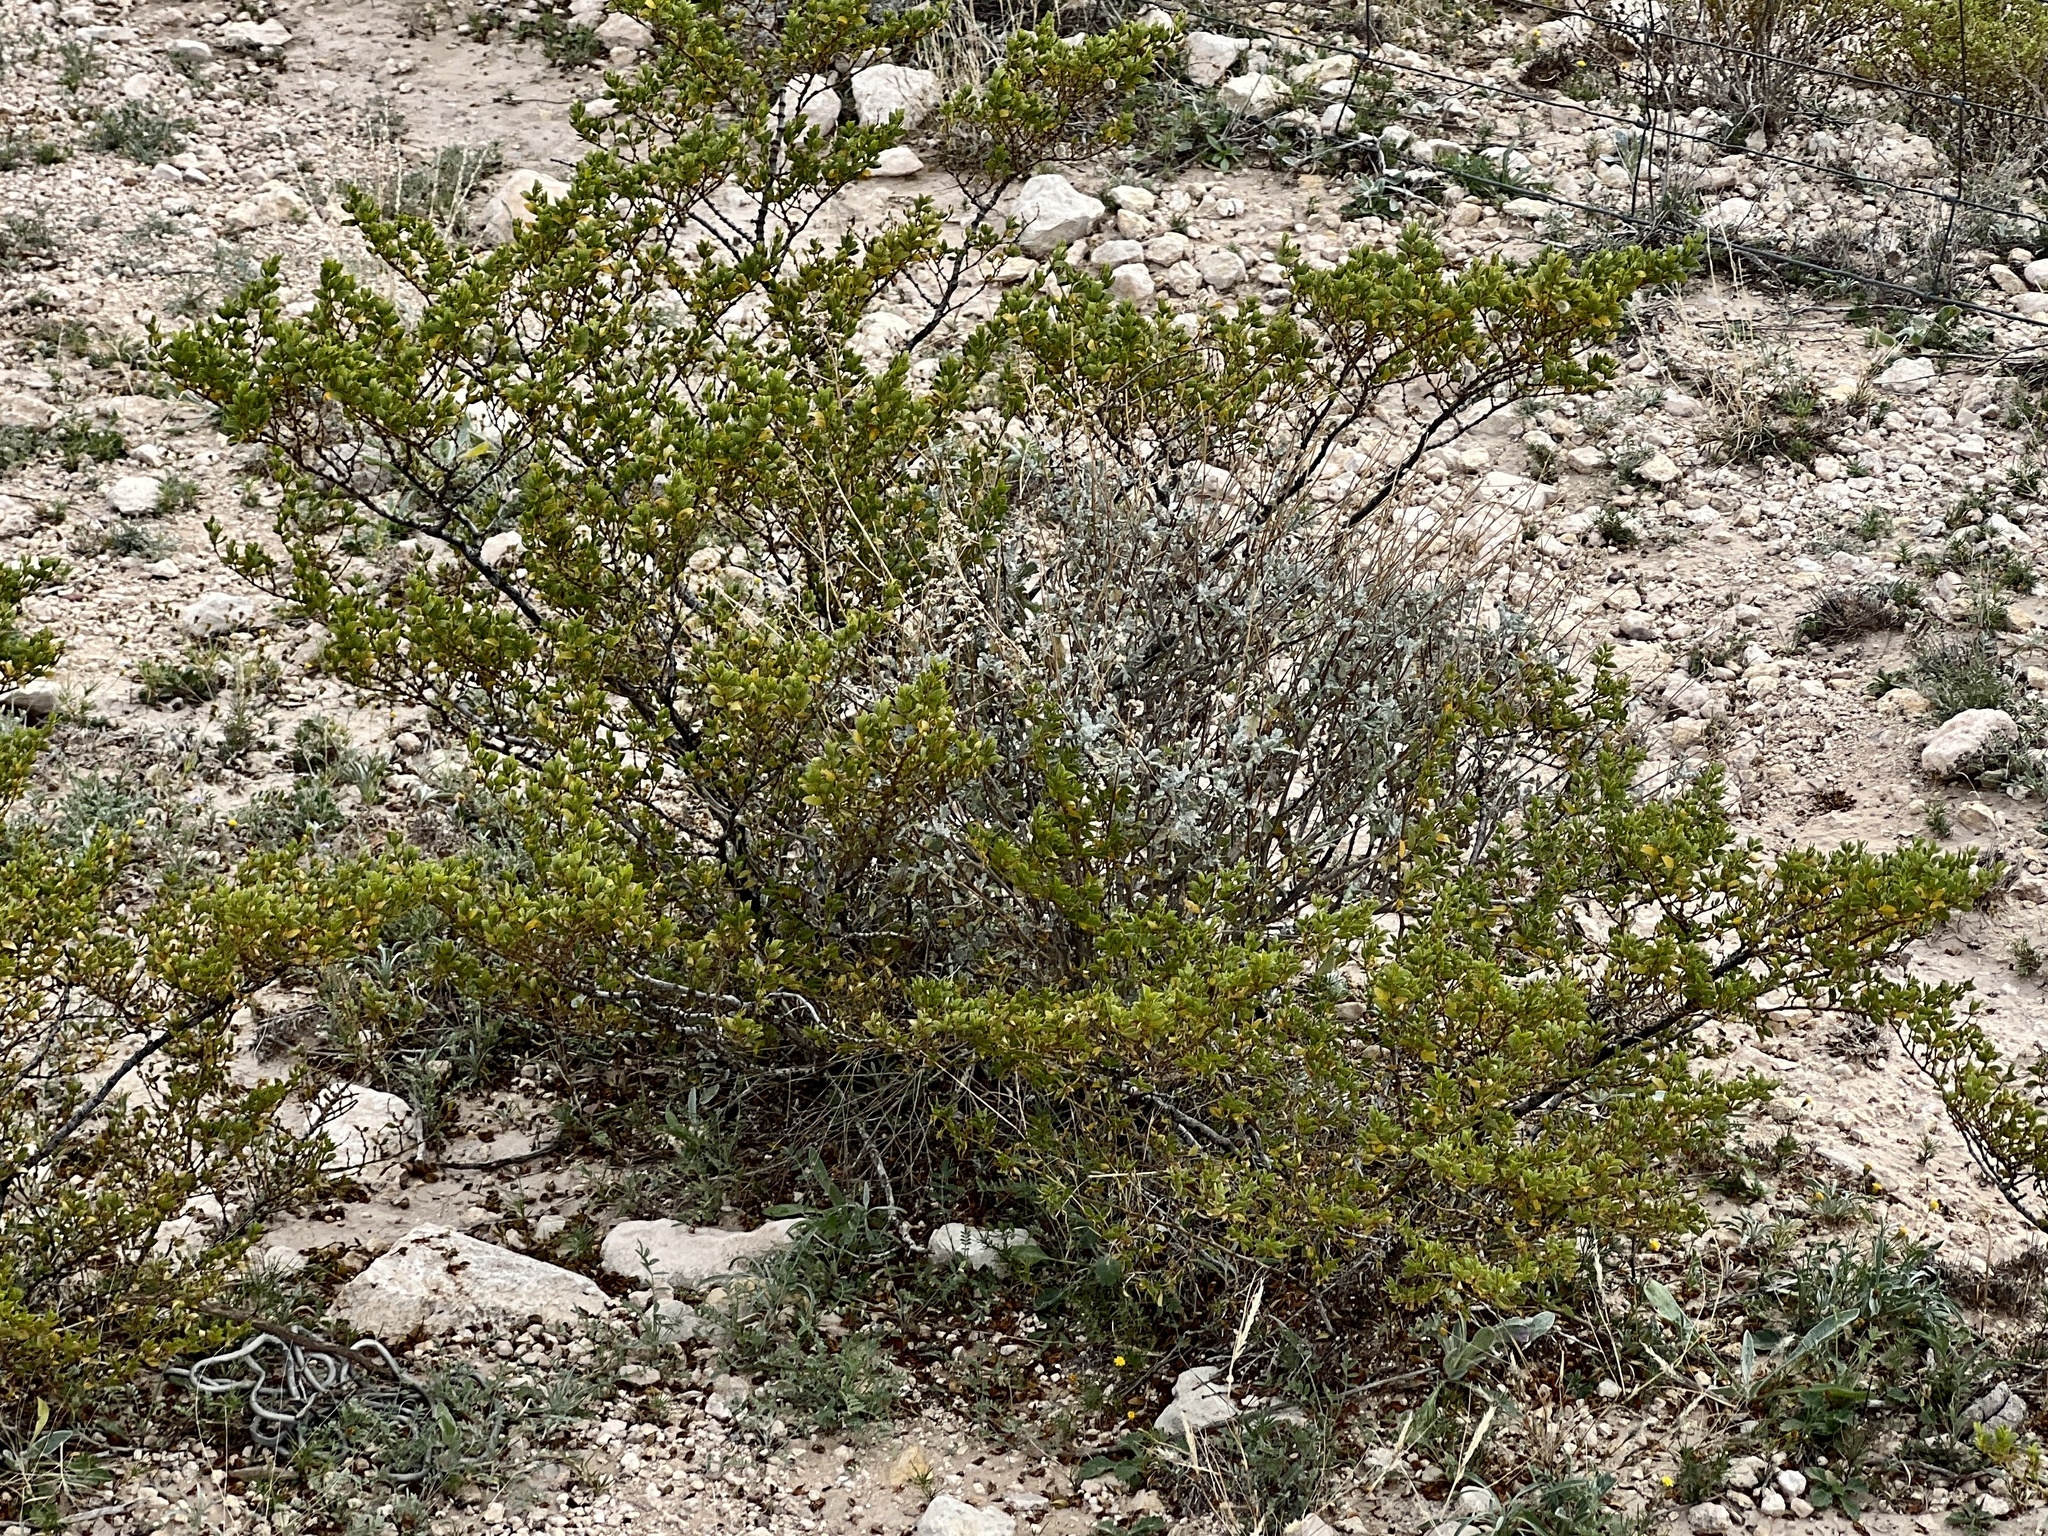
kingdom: Plantae
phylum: Tracheophyta
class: Magnoliopsida
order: Zygophyllales
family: Zygophyllaceae
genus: Larrea
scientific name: Larrea tridentata
